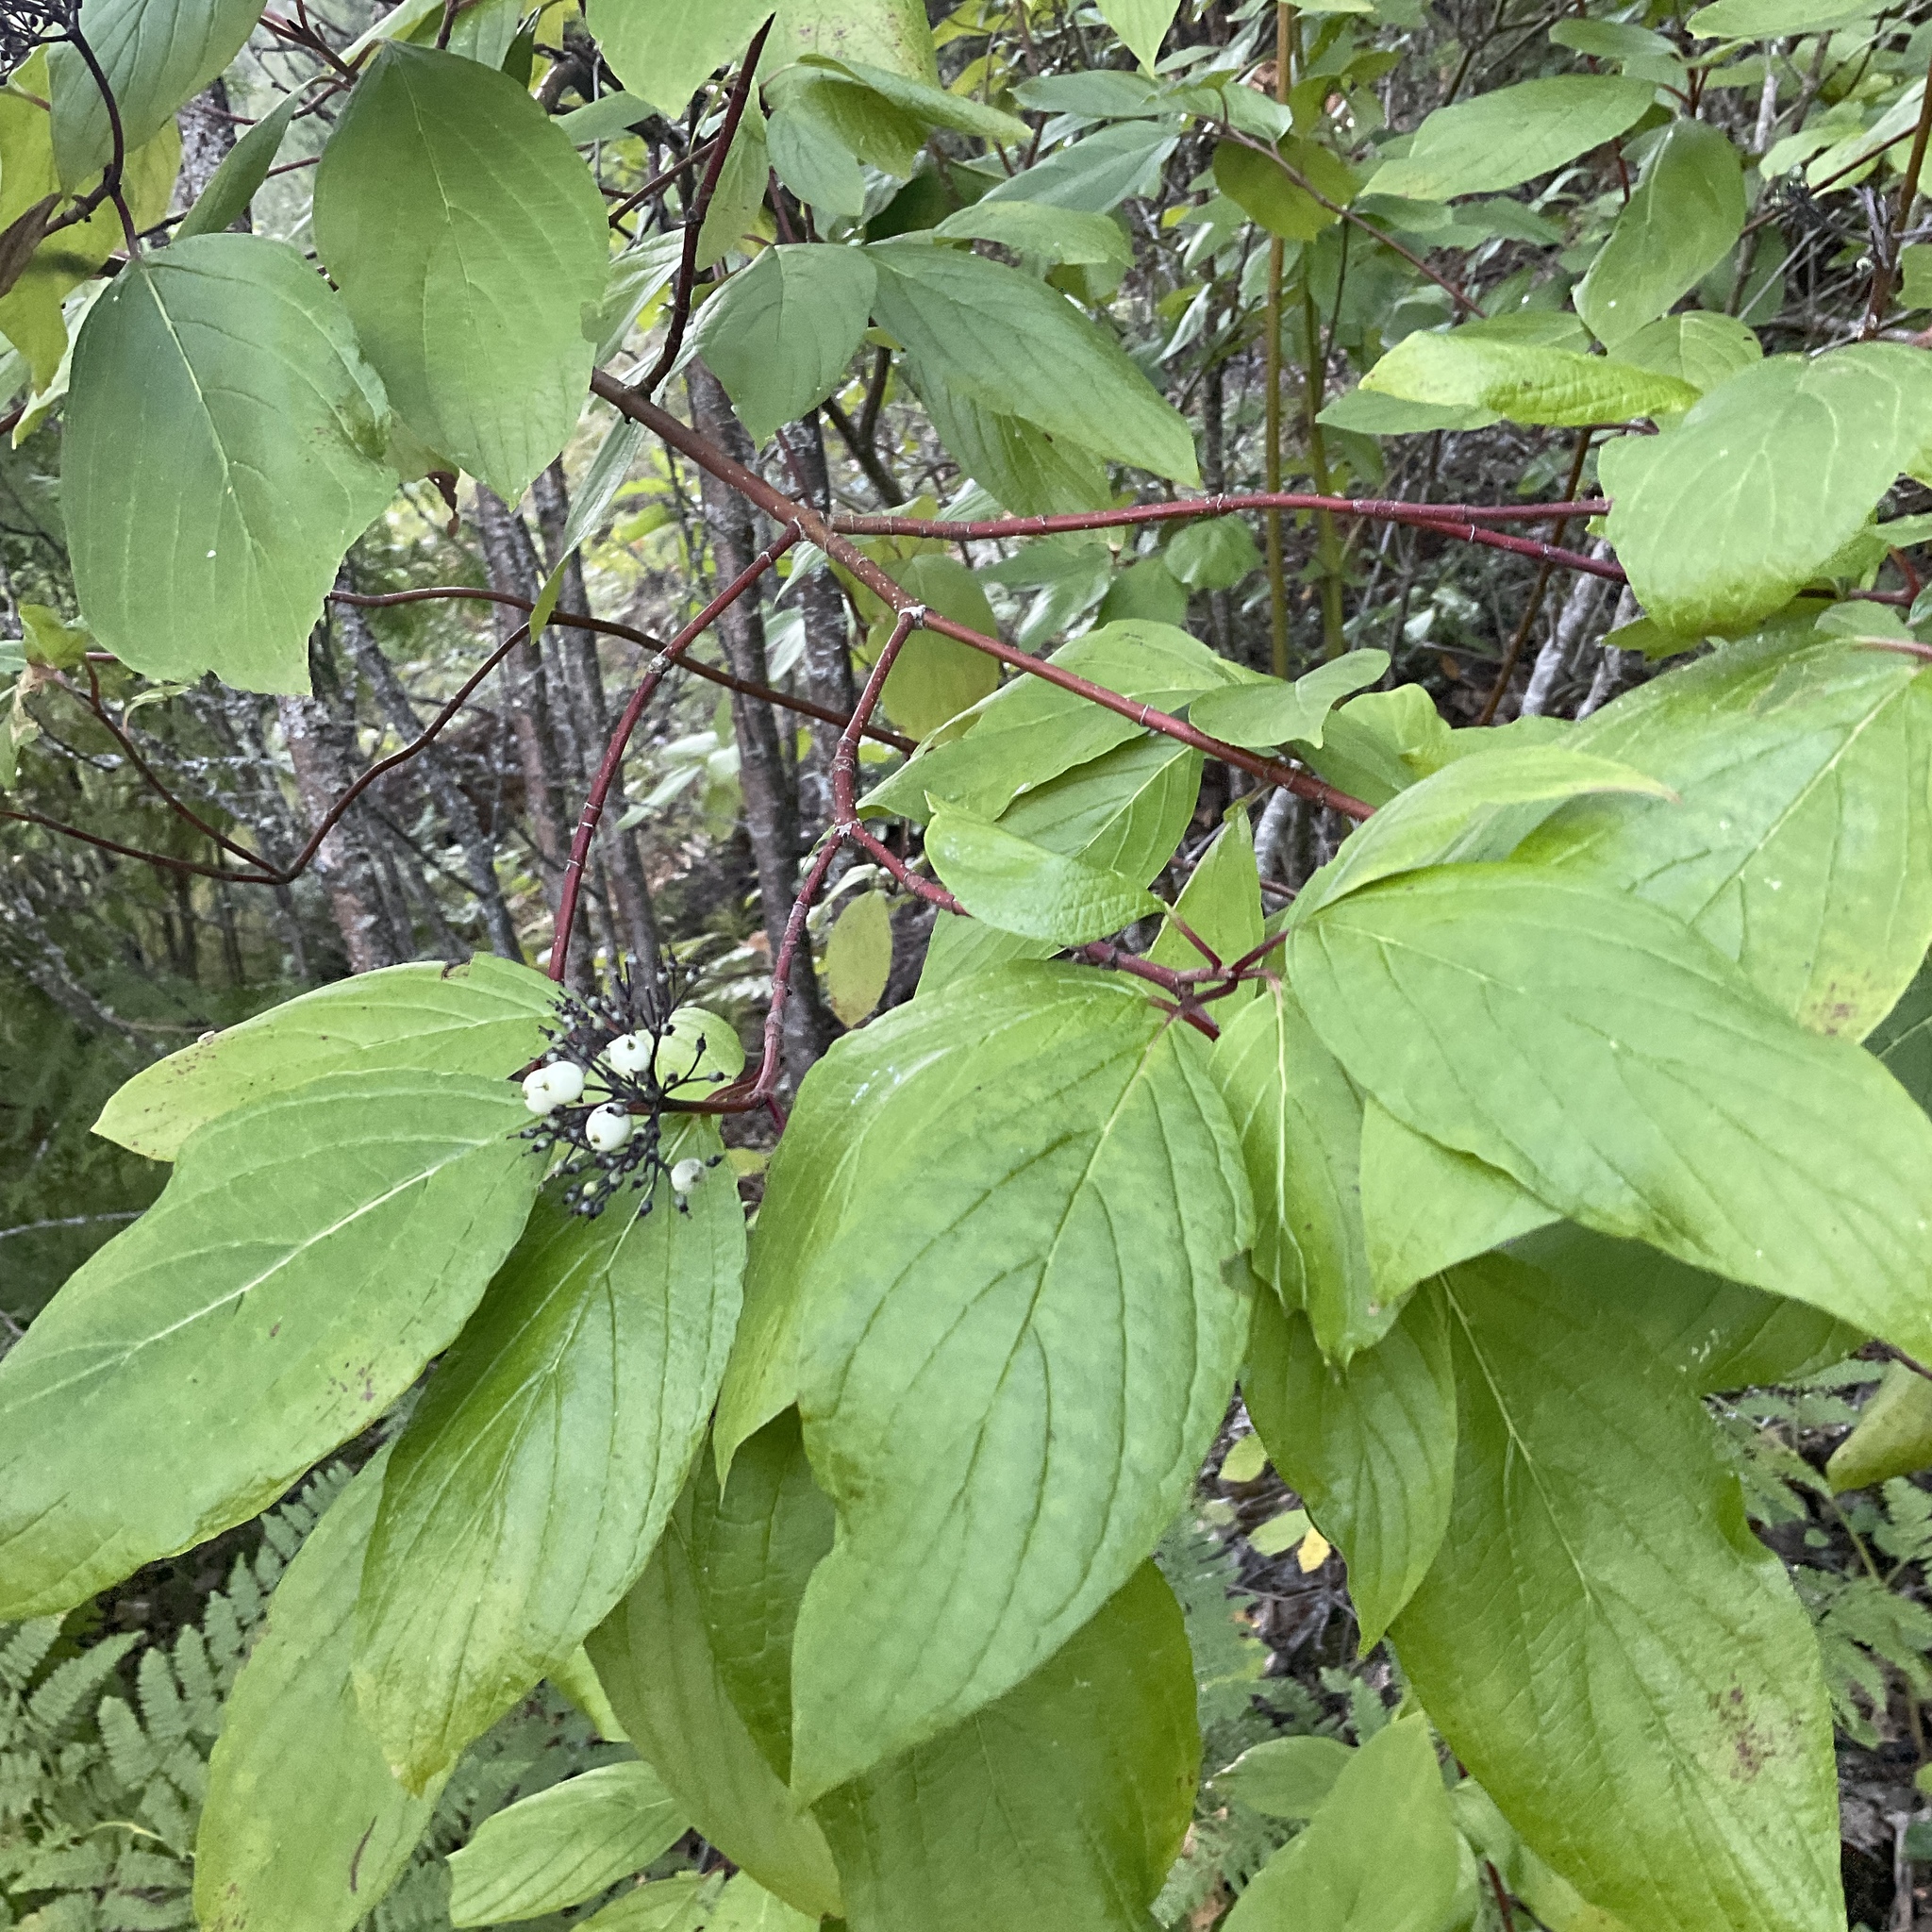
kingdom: Plantae
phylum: Tracheophyta
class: Magnoliopsida
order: Cornales
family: Cornaceae
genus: Cornus
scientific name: Cornus sericea
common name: Red-osier dogwood
